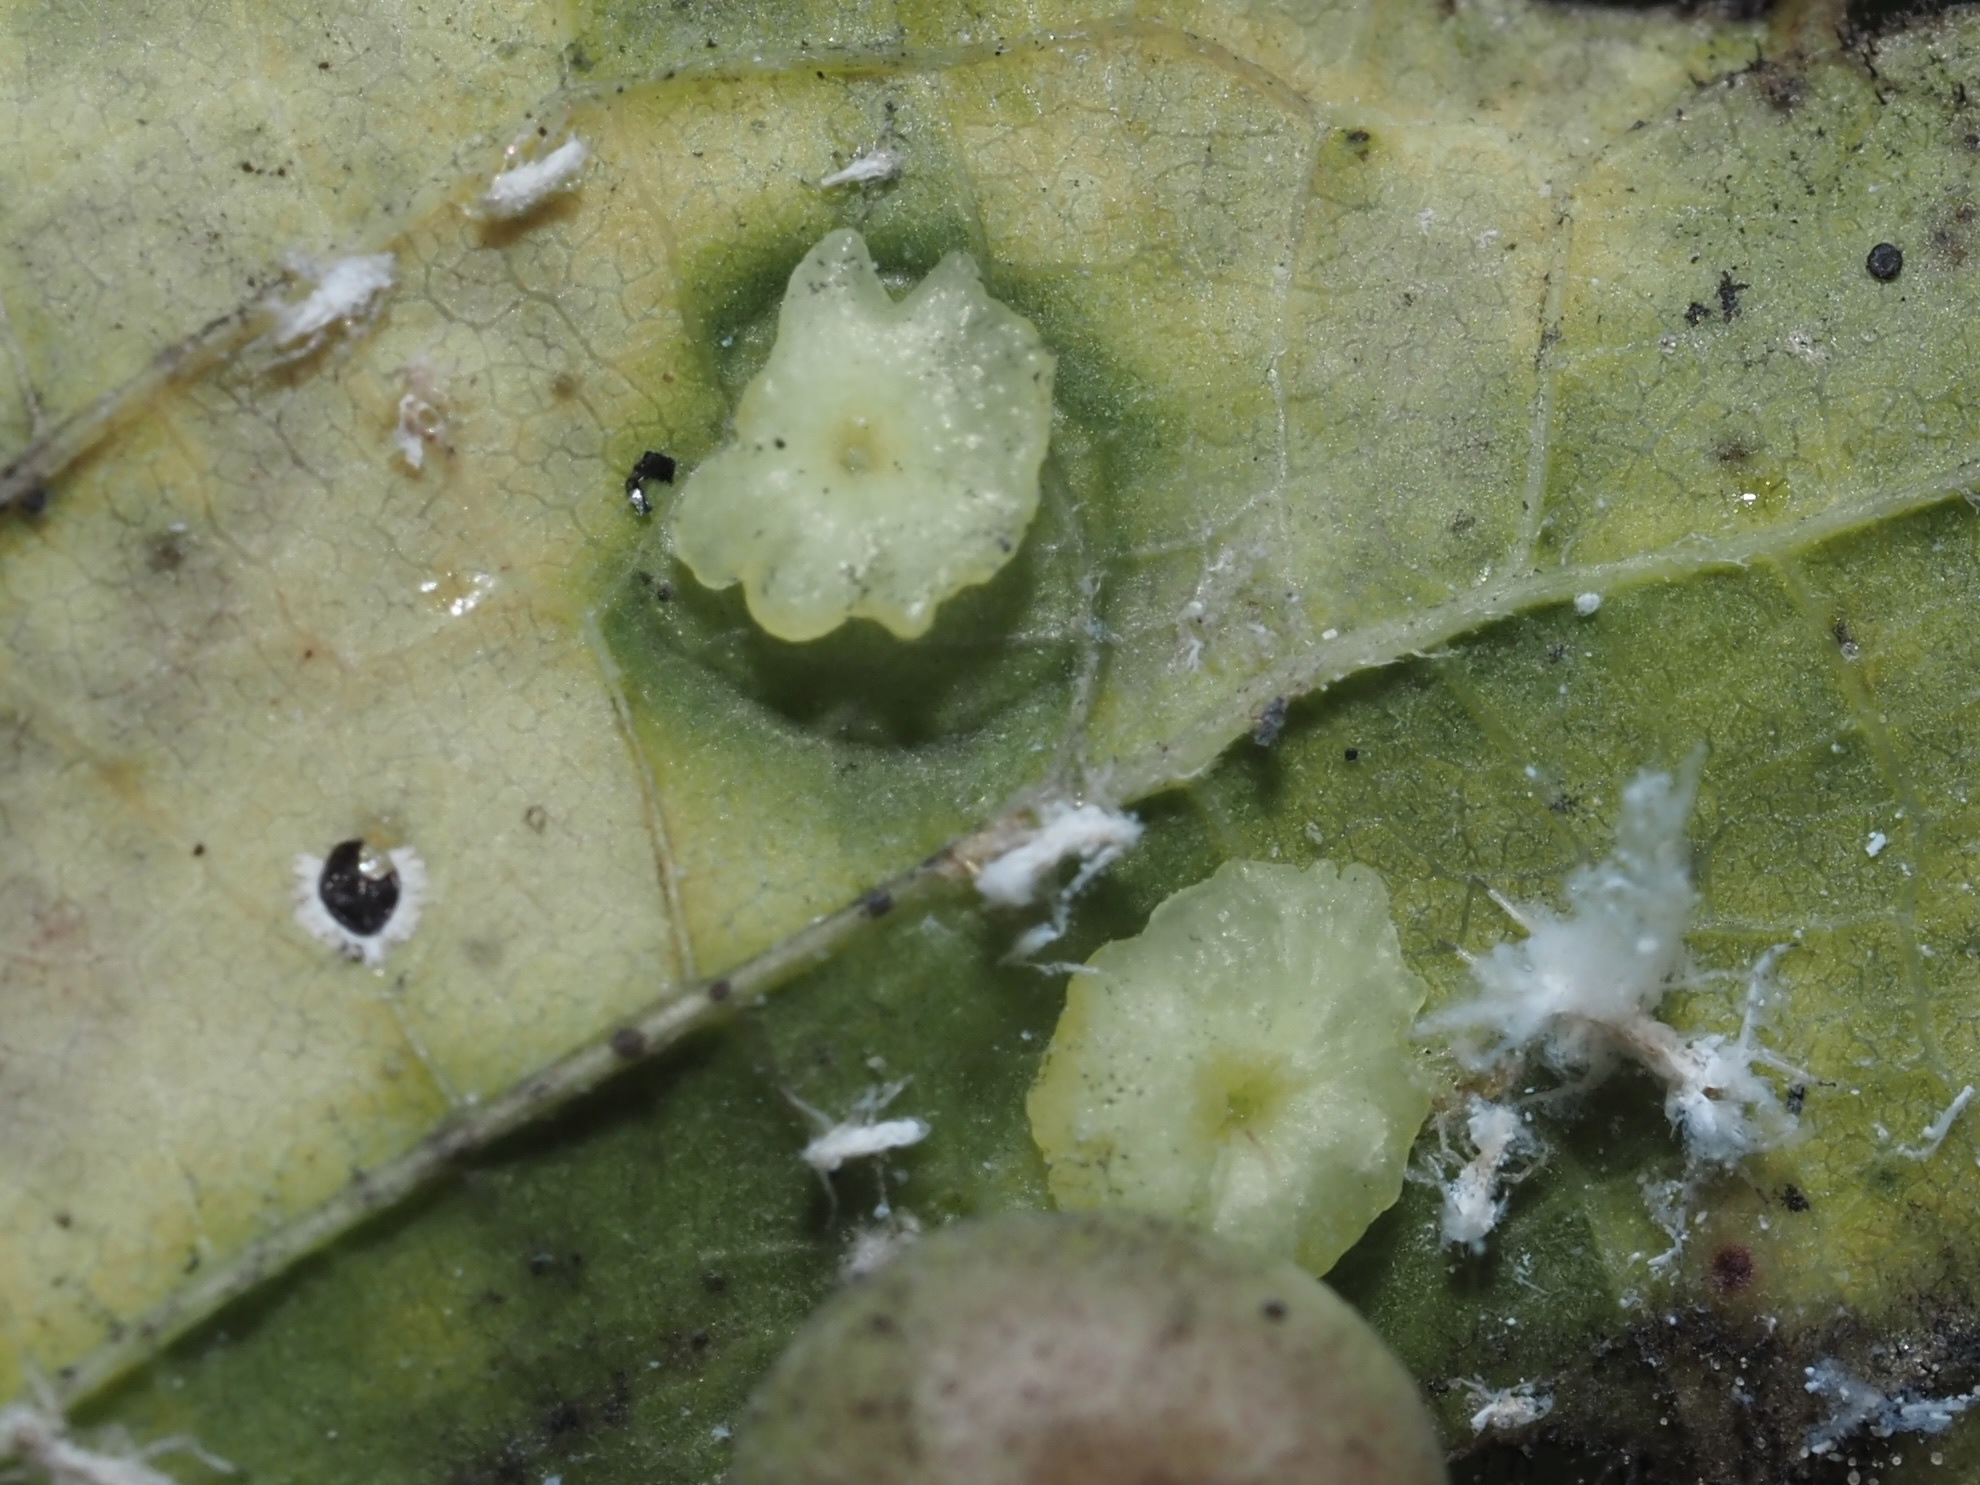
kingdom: Animalia
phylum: Arthropoda
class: Insecta
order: Hemiptera
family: Aphalaridae
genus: Pachypsylla
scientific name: Pachypsylla celtidisasterisca
